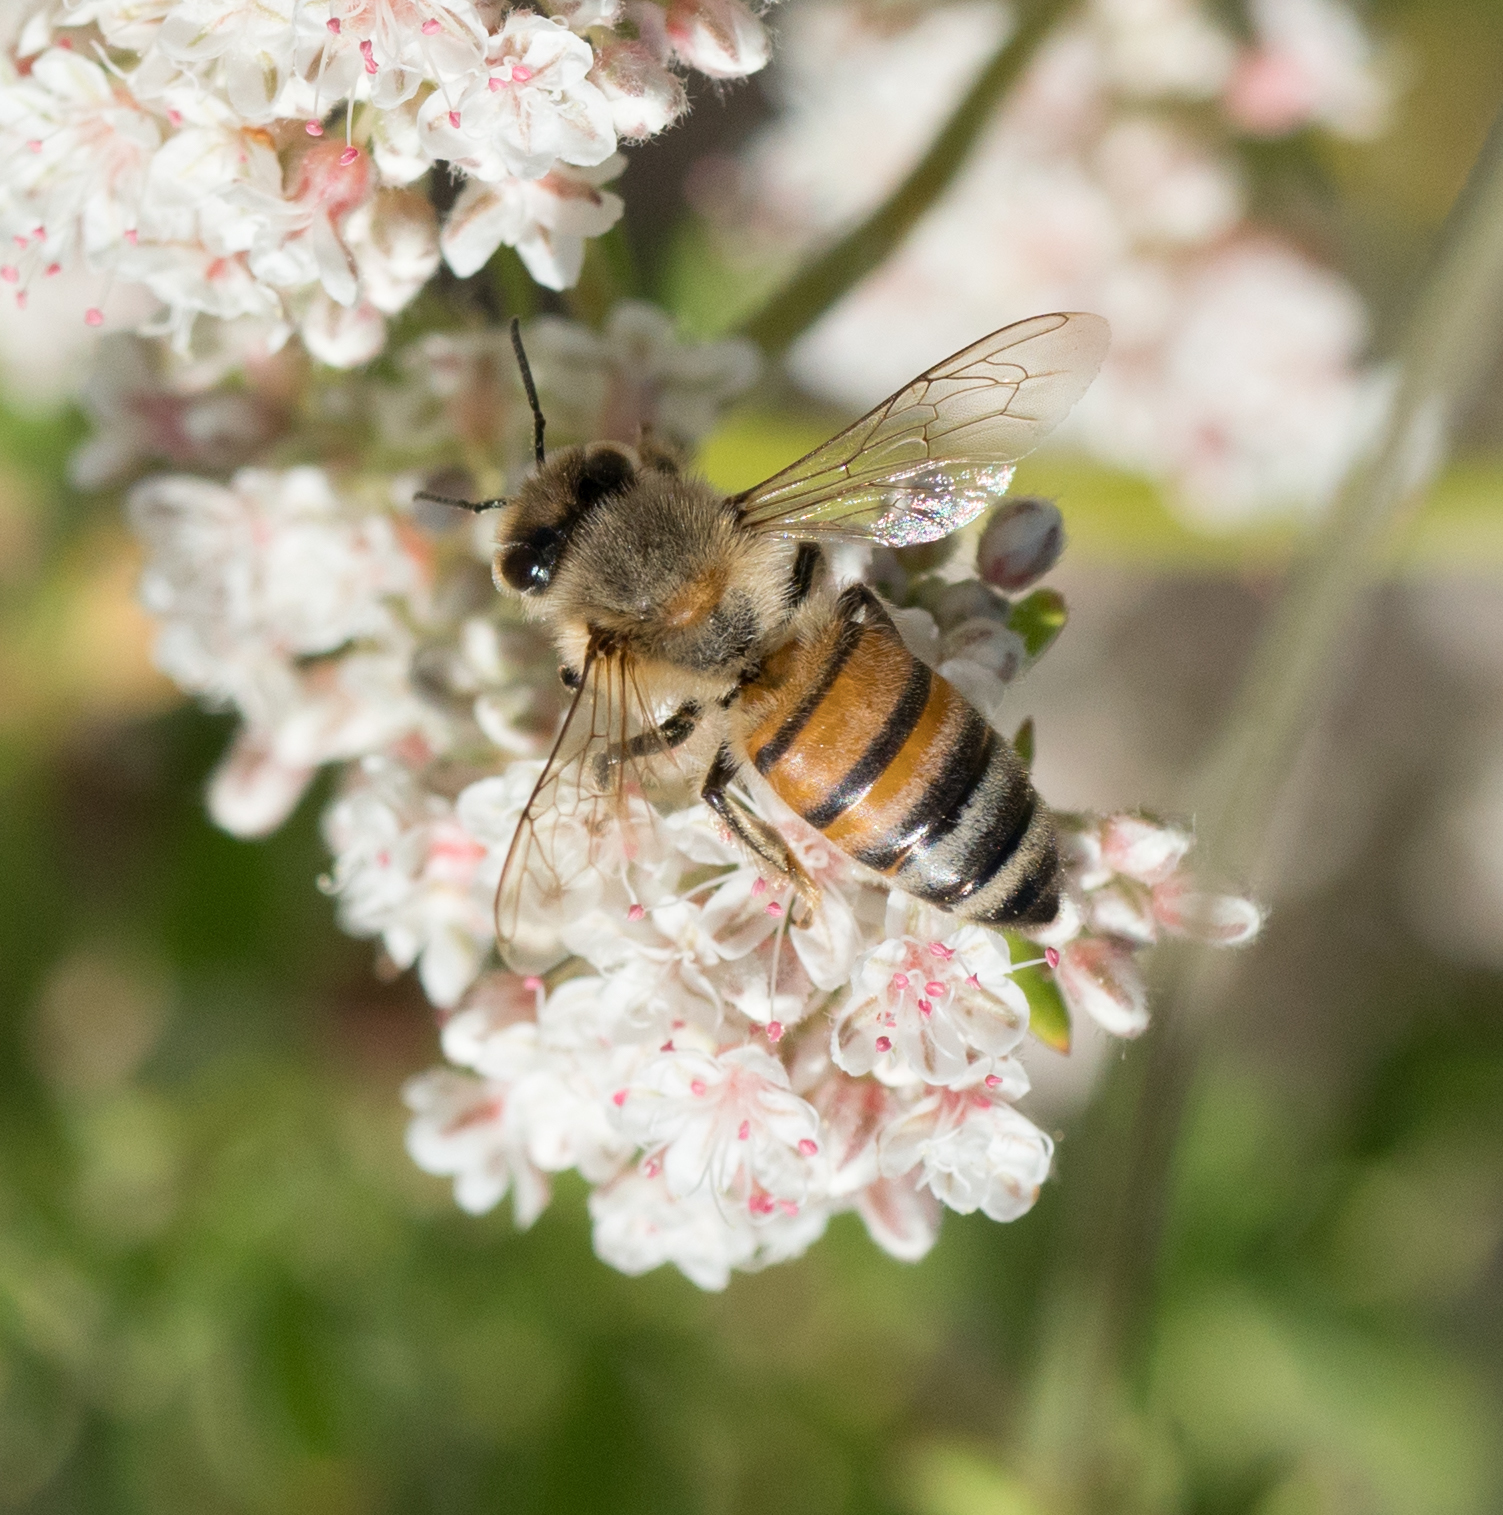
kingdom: Animalia
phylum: Arthropoda
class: Insecta
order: Hymenoptera
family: Apidae
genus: Apis
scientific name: Apis mellifera
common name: Honey bee
